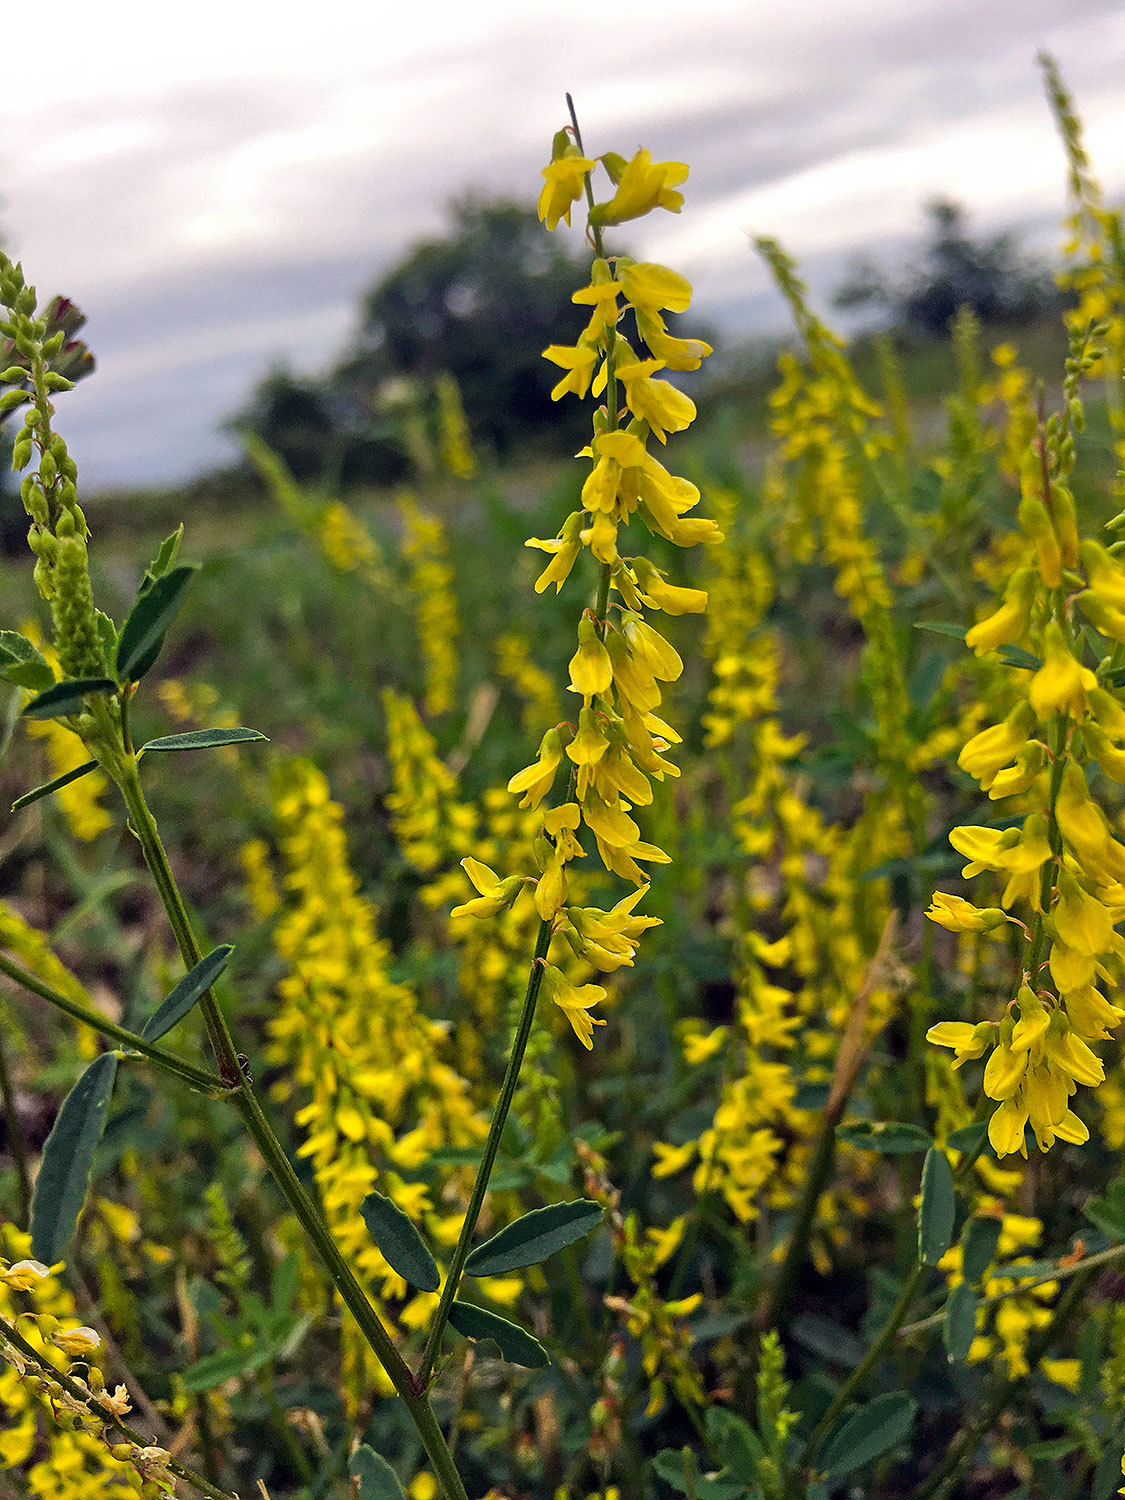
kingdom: Plantae
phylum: Tracheophyta
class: Magnoliopsida
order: Fabales
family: Fabaceae
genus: Melilotus
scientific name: Melilotus officinalis
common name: Sweetclover
